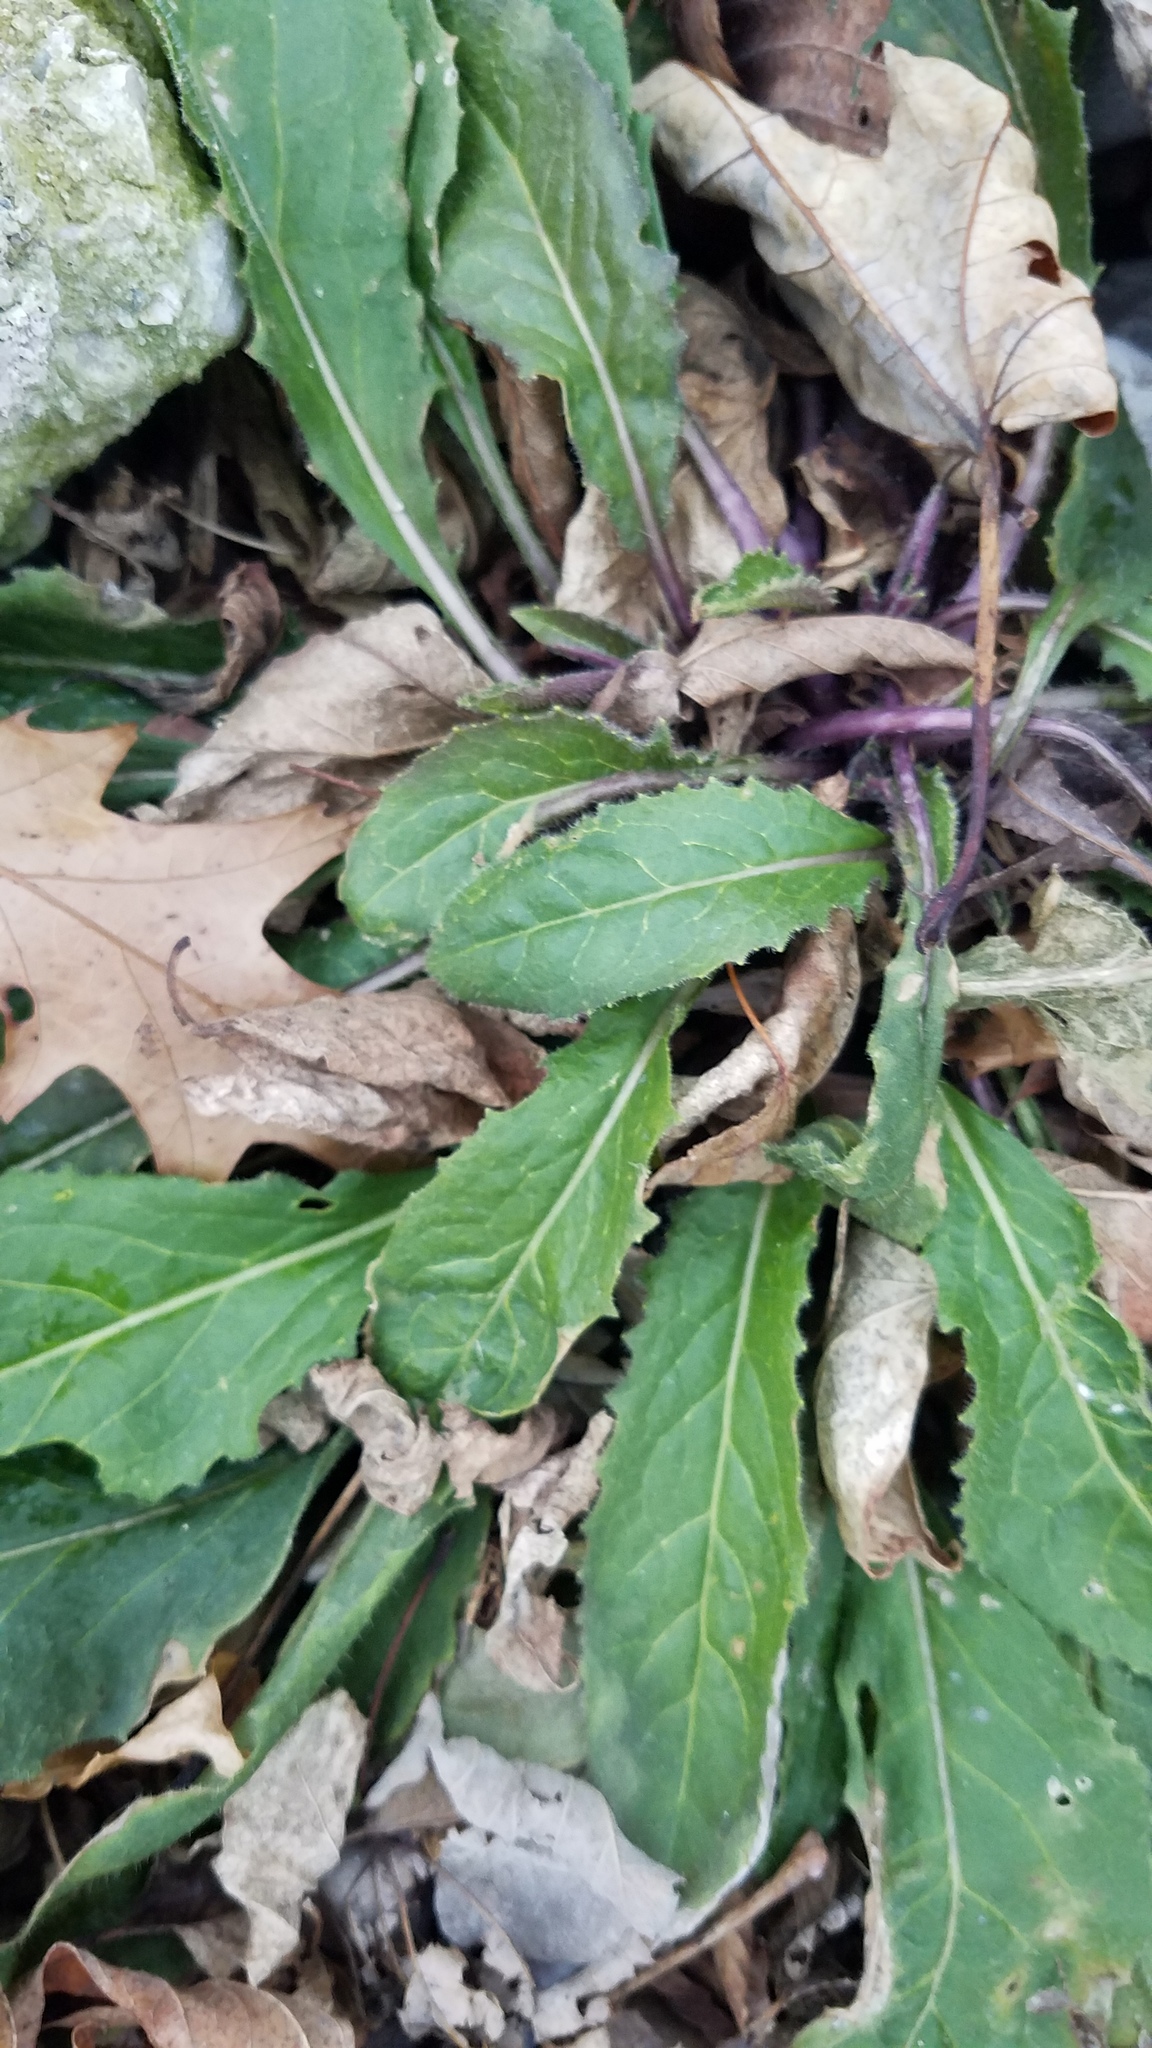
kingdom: Plantae
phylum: Tracheophyta
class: Magnoliopsida
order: Brassicales
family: Brassicaceae
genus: Hesperis
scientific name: Hesperis matronalis
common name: Dame's-violet
